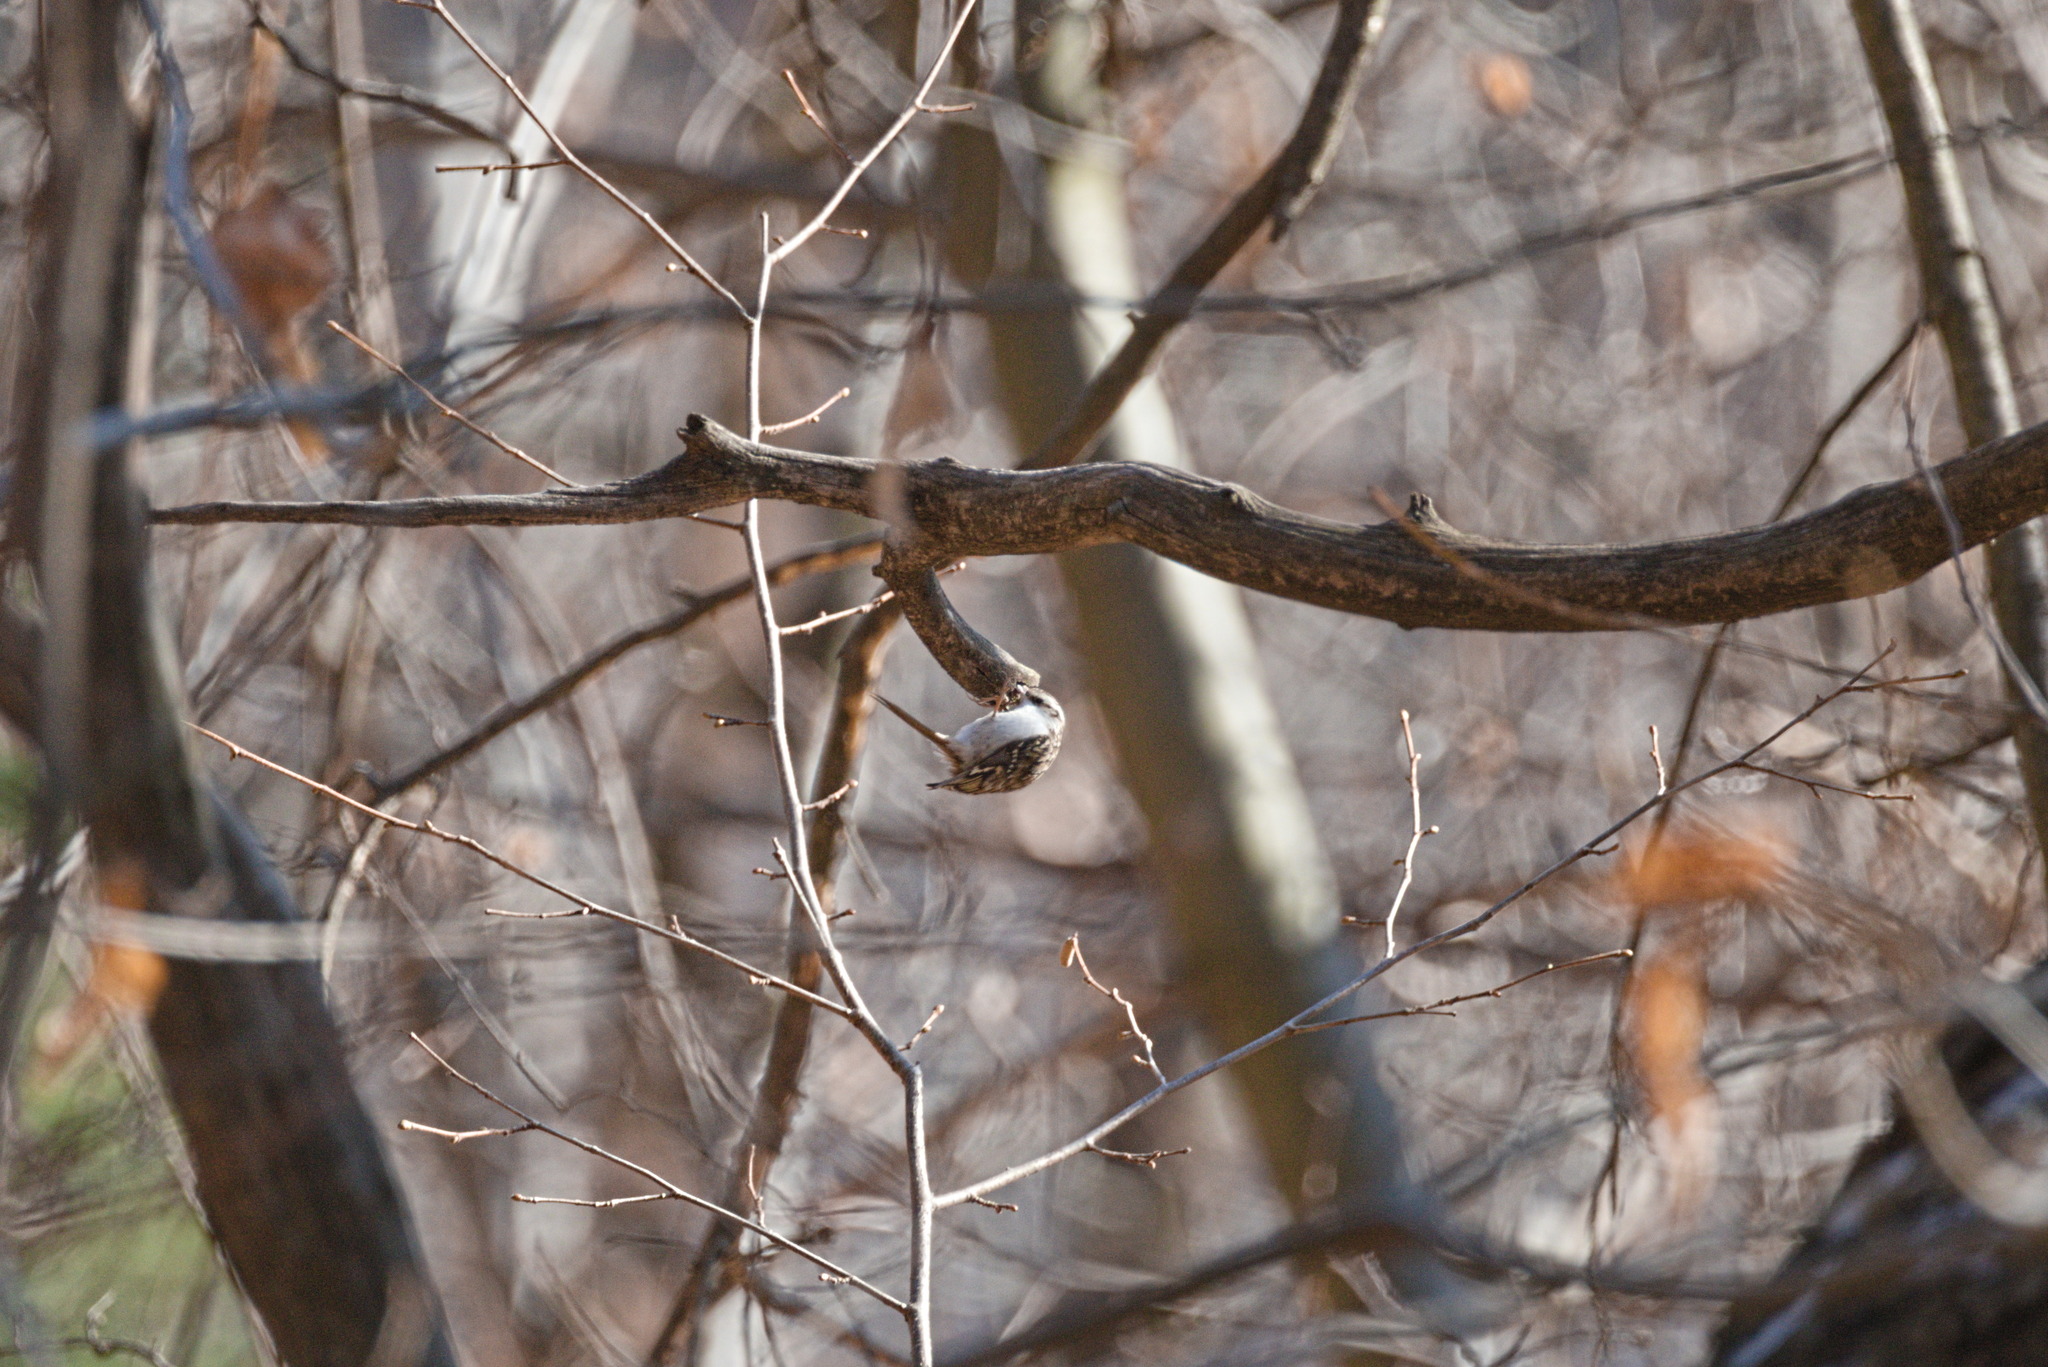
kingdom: Animalia
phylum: Chordata
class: Aves
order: Passeriformes
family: Certhiidae
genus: Certhia
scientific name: Certhia
